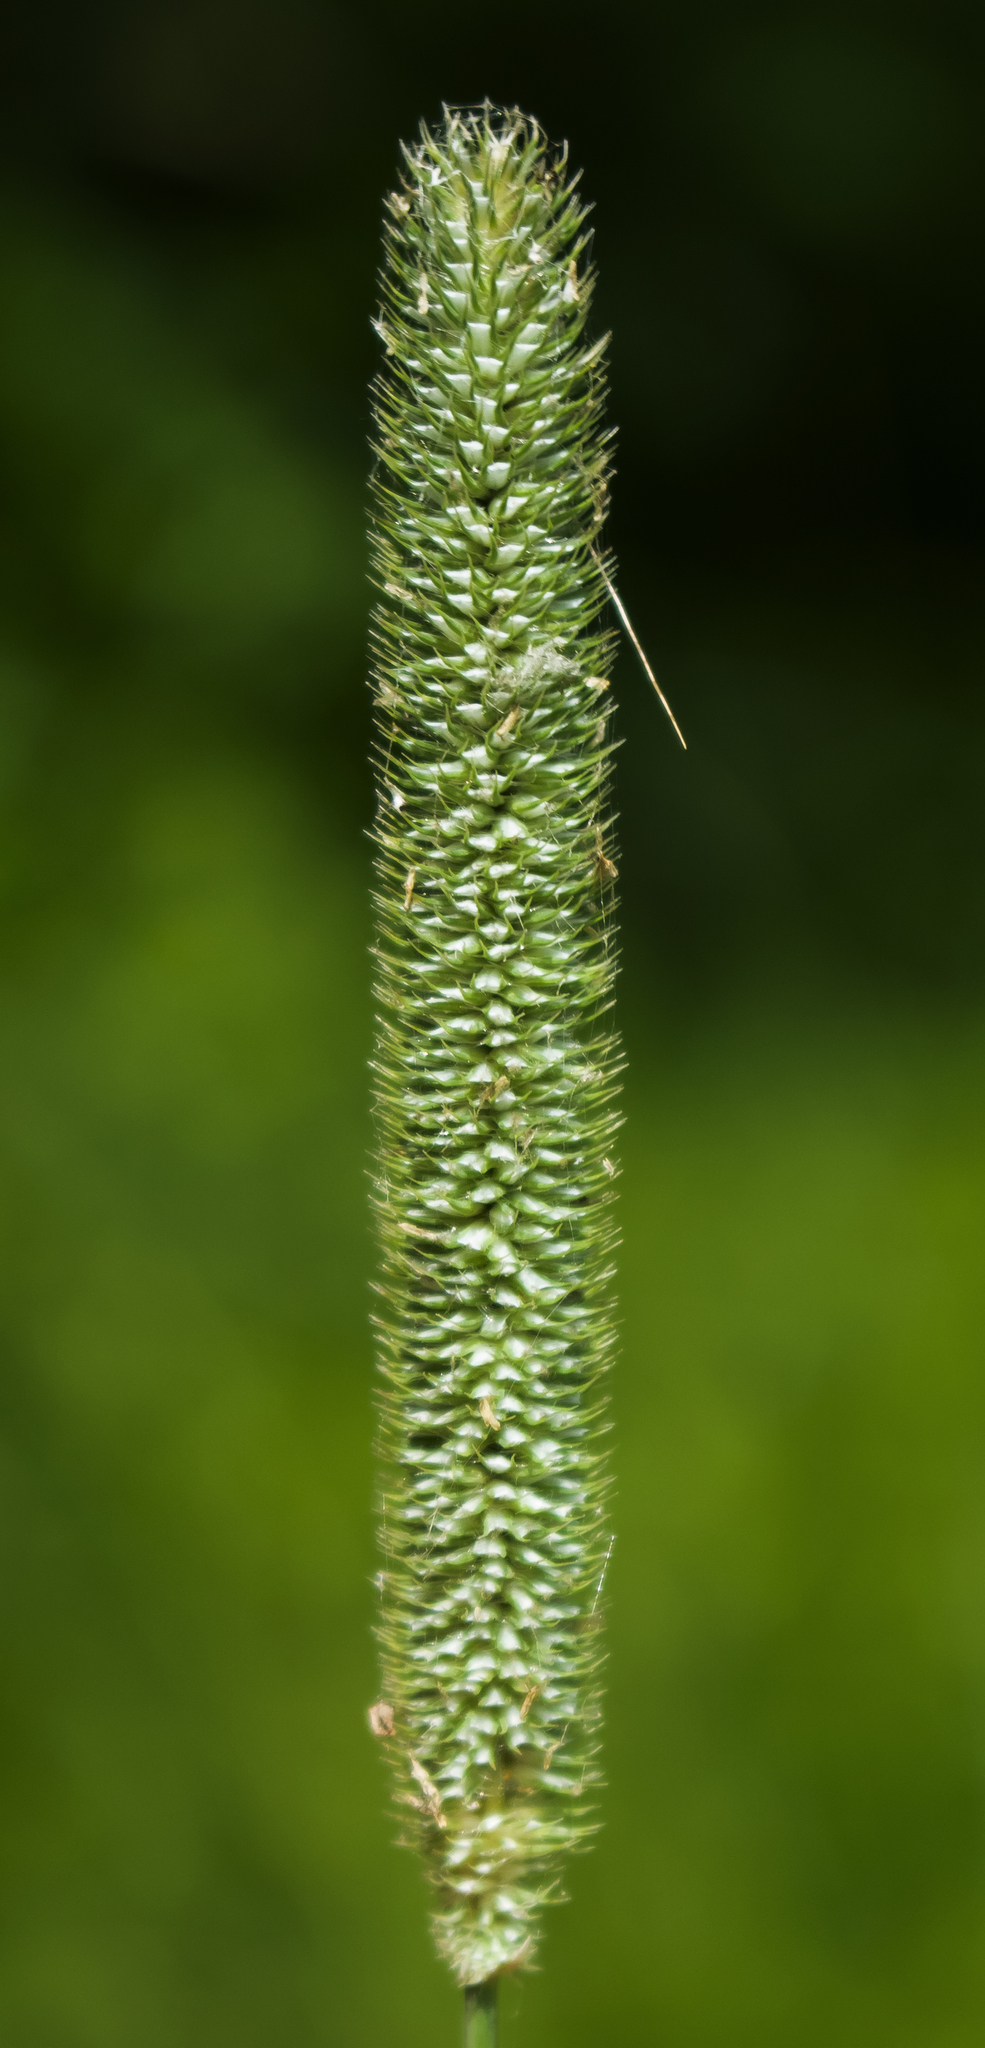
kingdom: Plantae
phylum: Tracheophyta
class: Liliopsida
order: Poales
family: Poaceae
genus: Phleum
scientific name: Phleum pratense
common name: Timothy grass
